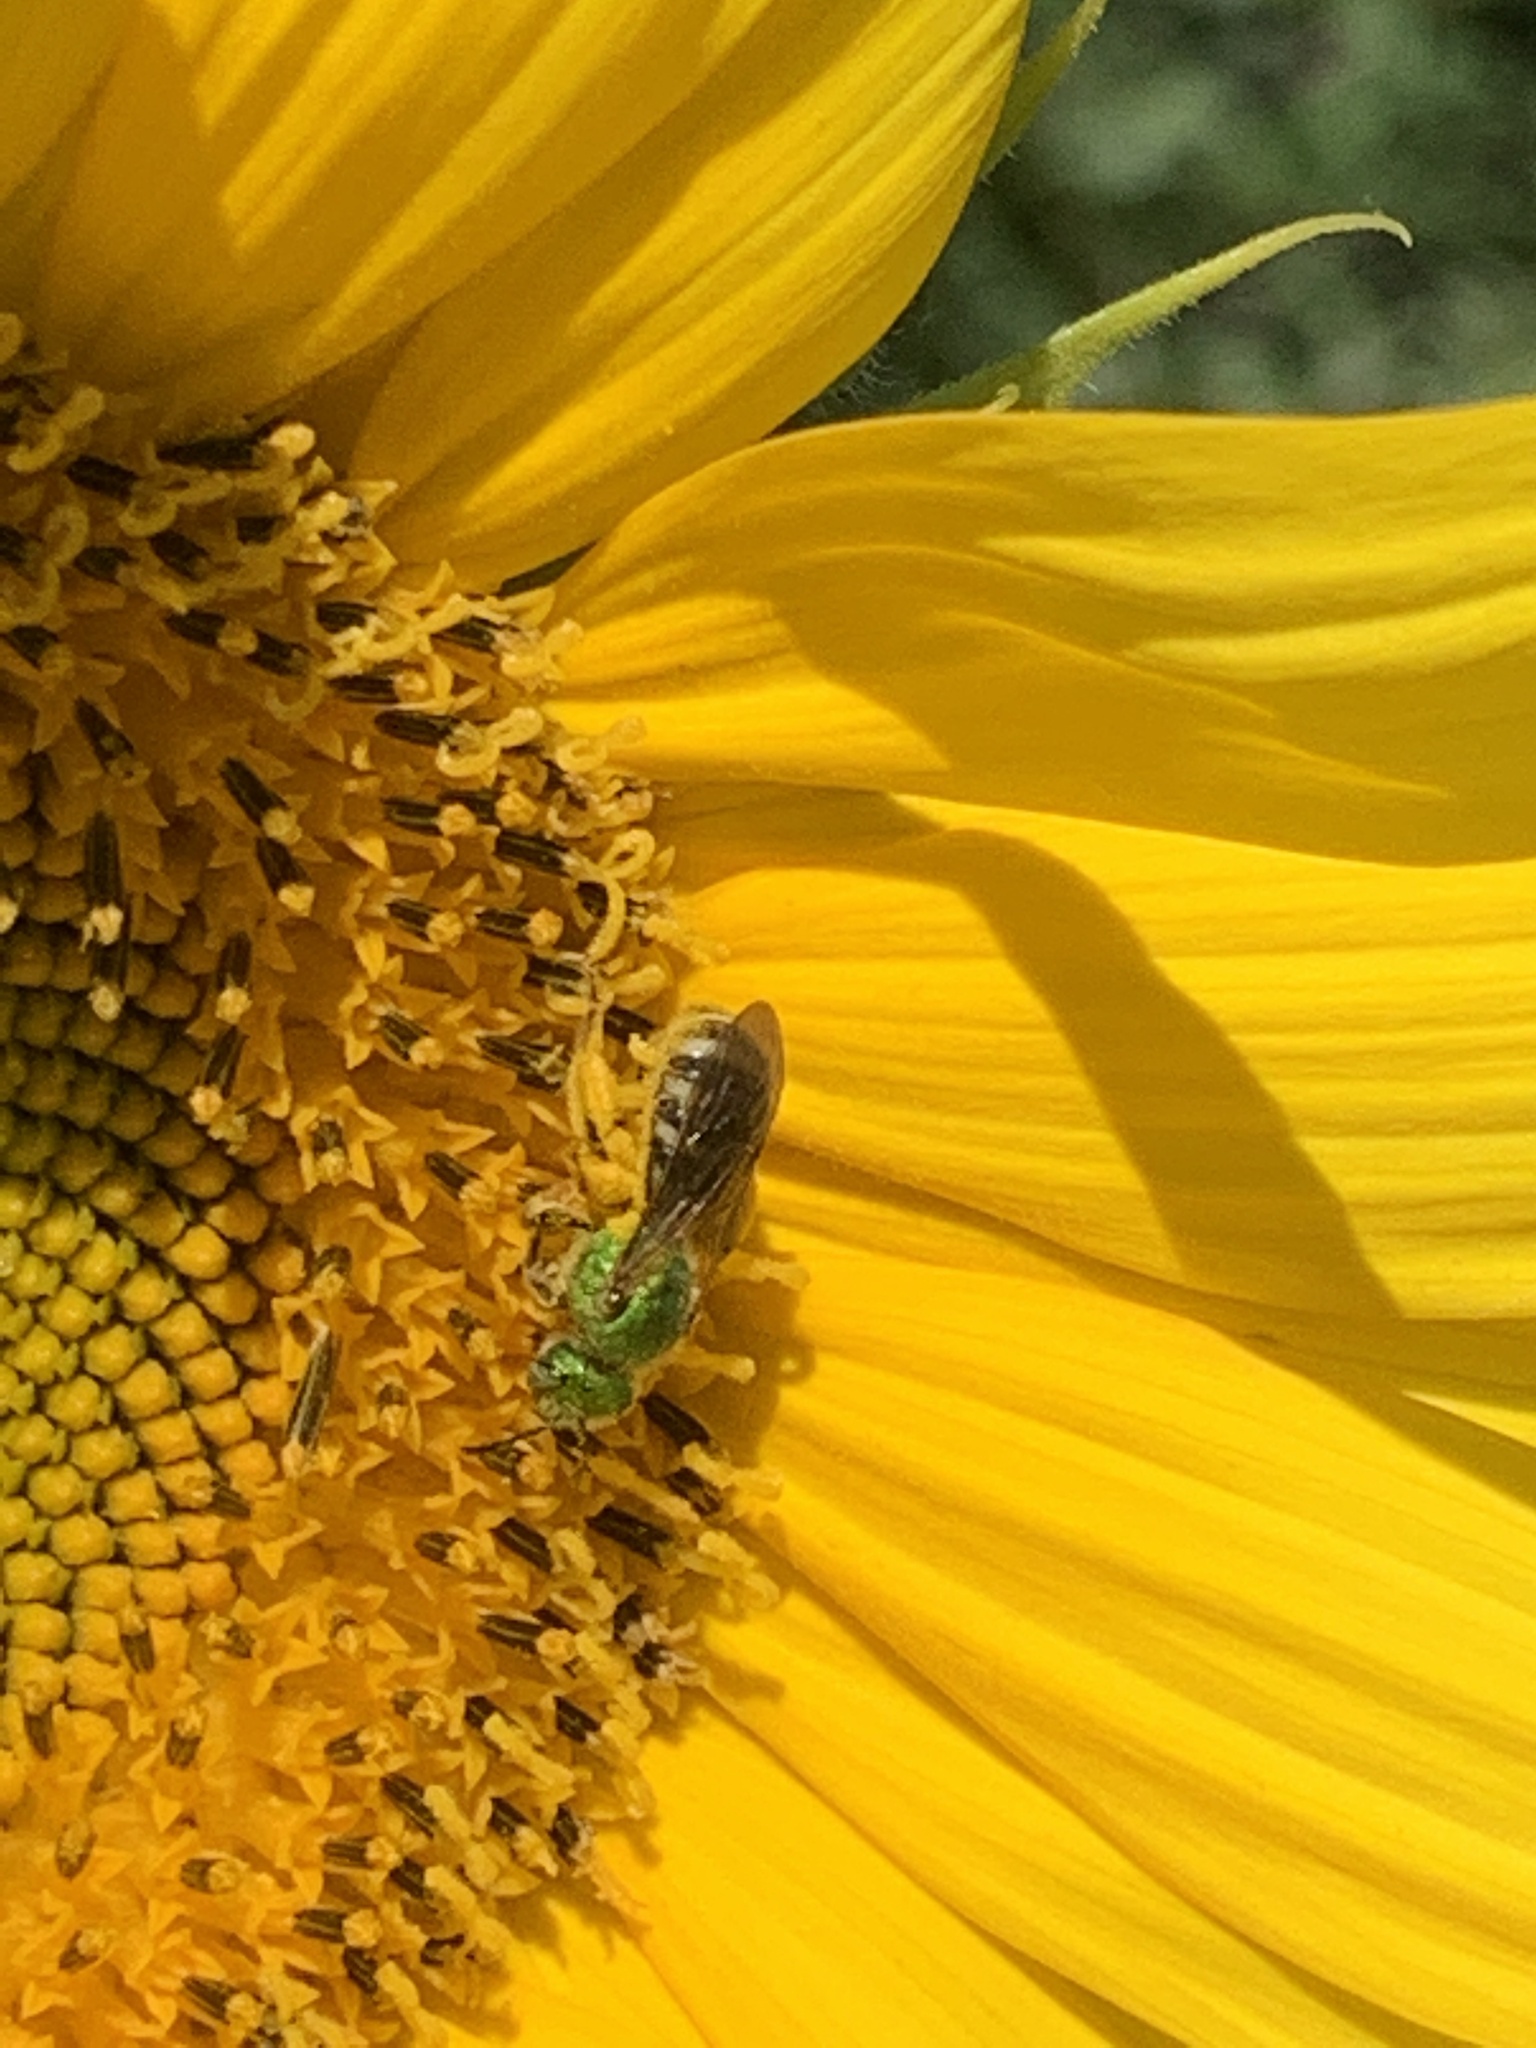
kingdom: Animalia
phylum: Arthropoda
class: Insecta
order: Hymenoptera
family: Halictidae
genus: Agapostemon
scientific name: Agapostemon virescens
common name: Bicolored striped sweat bee
